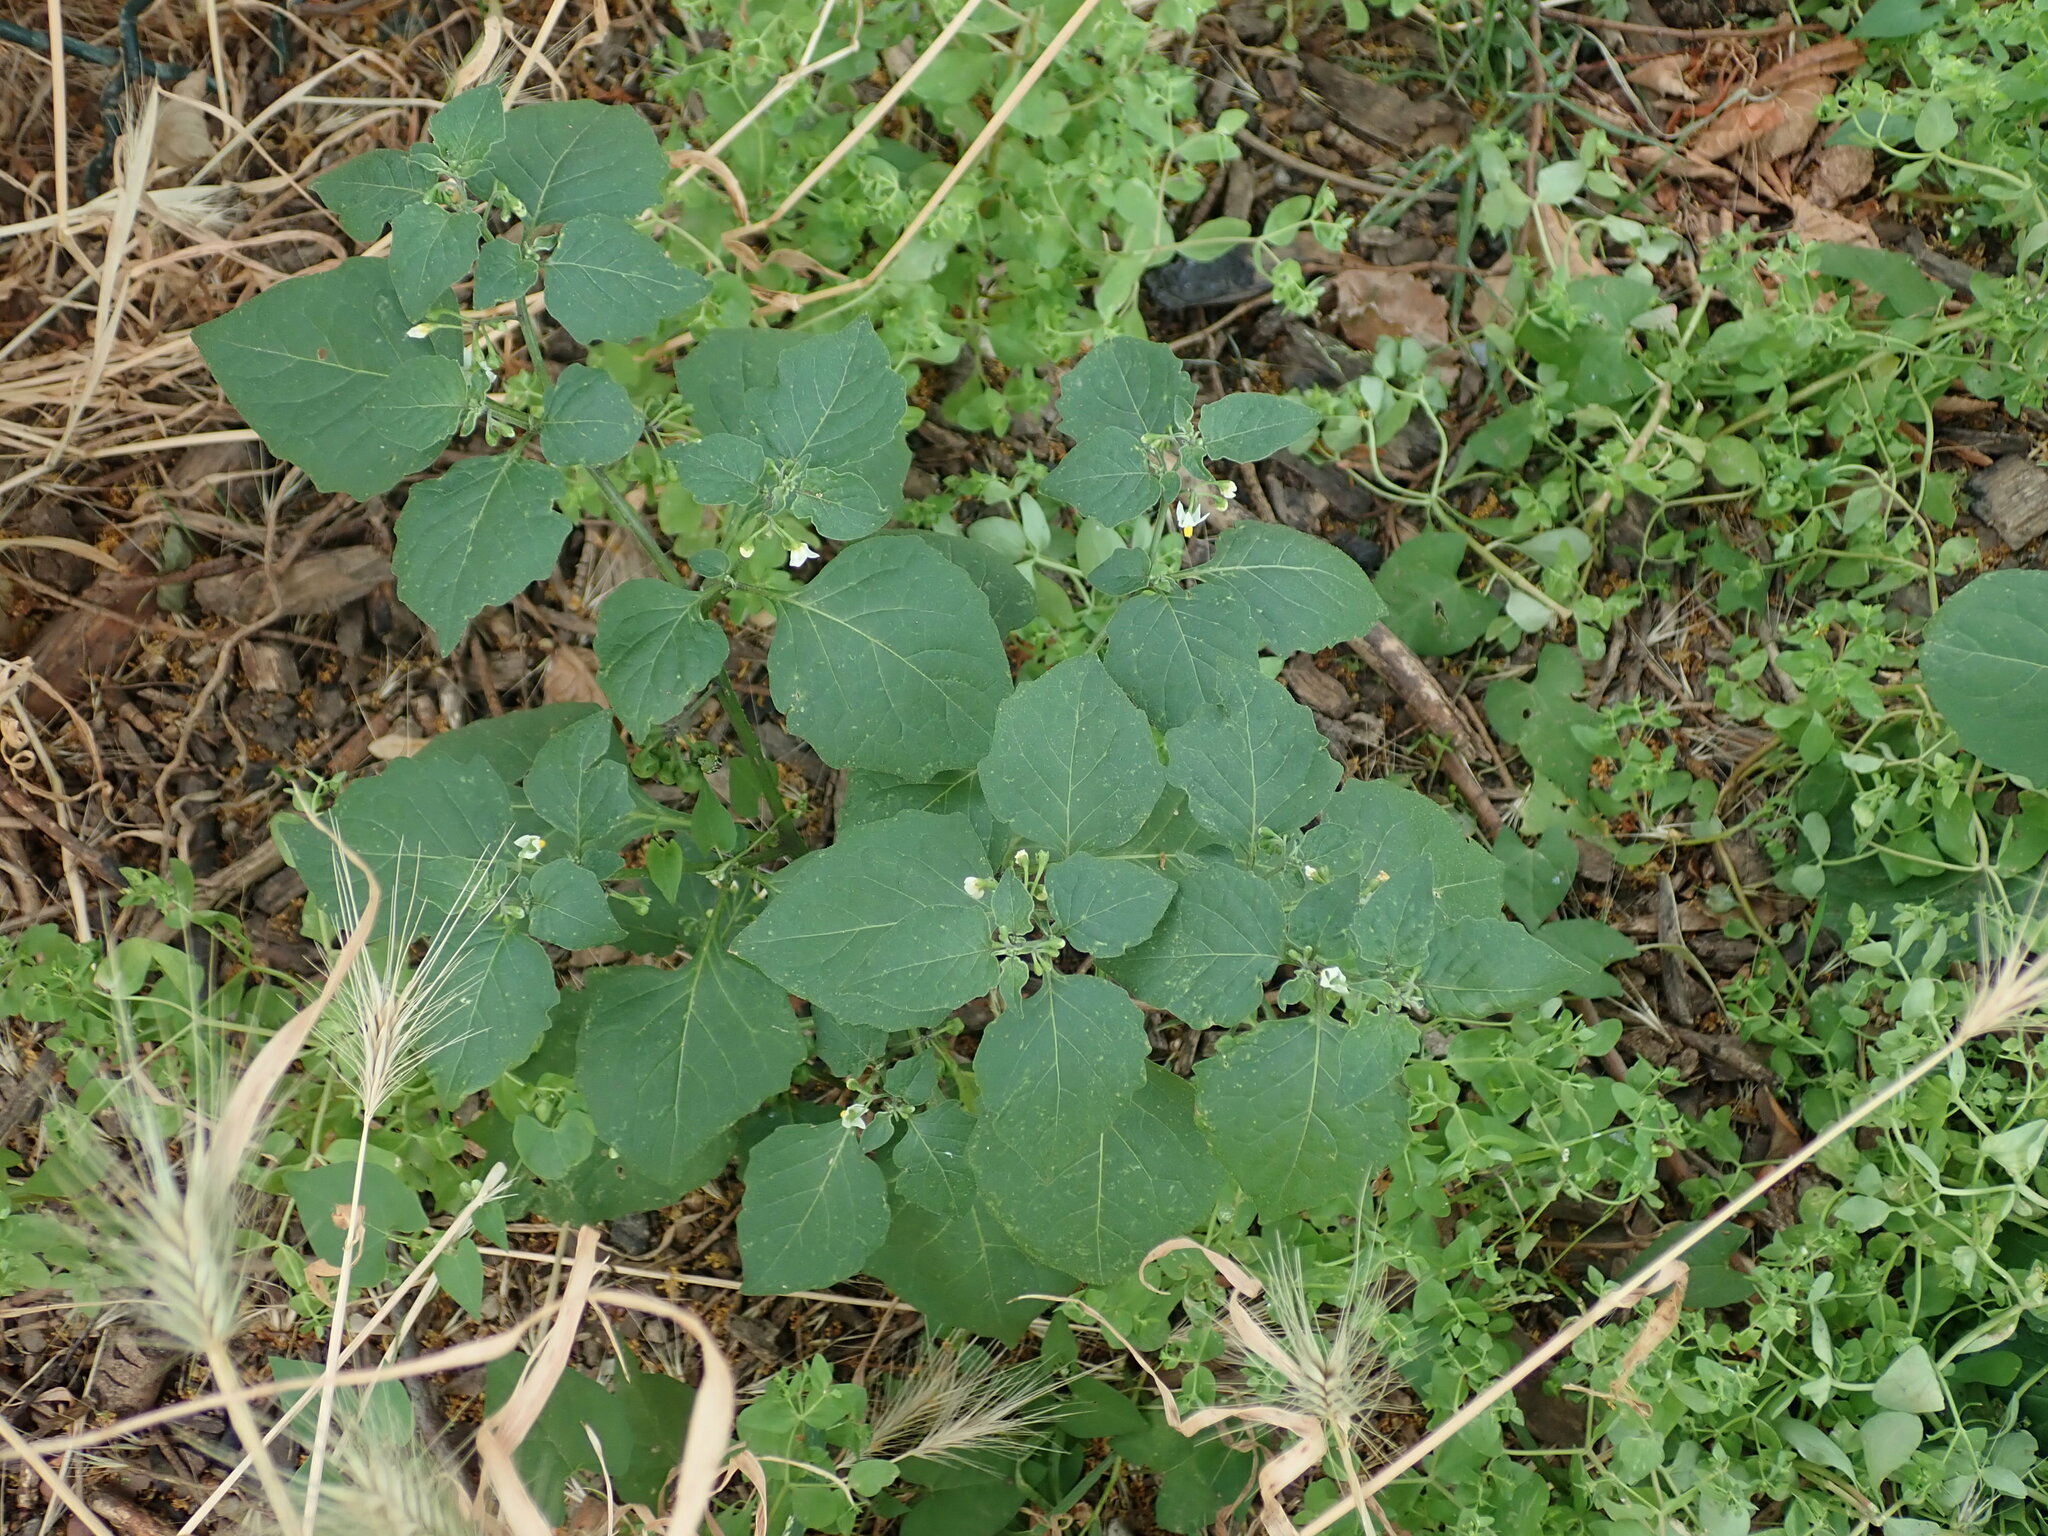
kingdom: Plantae
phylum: Tracheophyta
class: Magnoliopsida
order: Solanales
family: Solanaceae
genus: Solanum
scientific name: Solanum nigrum
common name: Black nightshade
